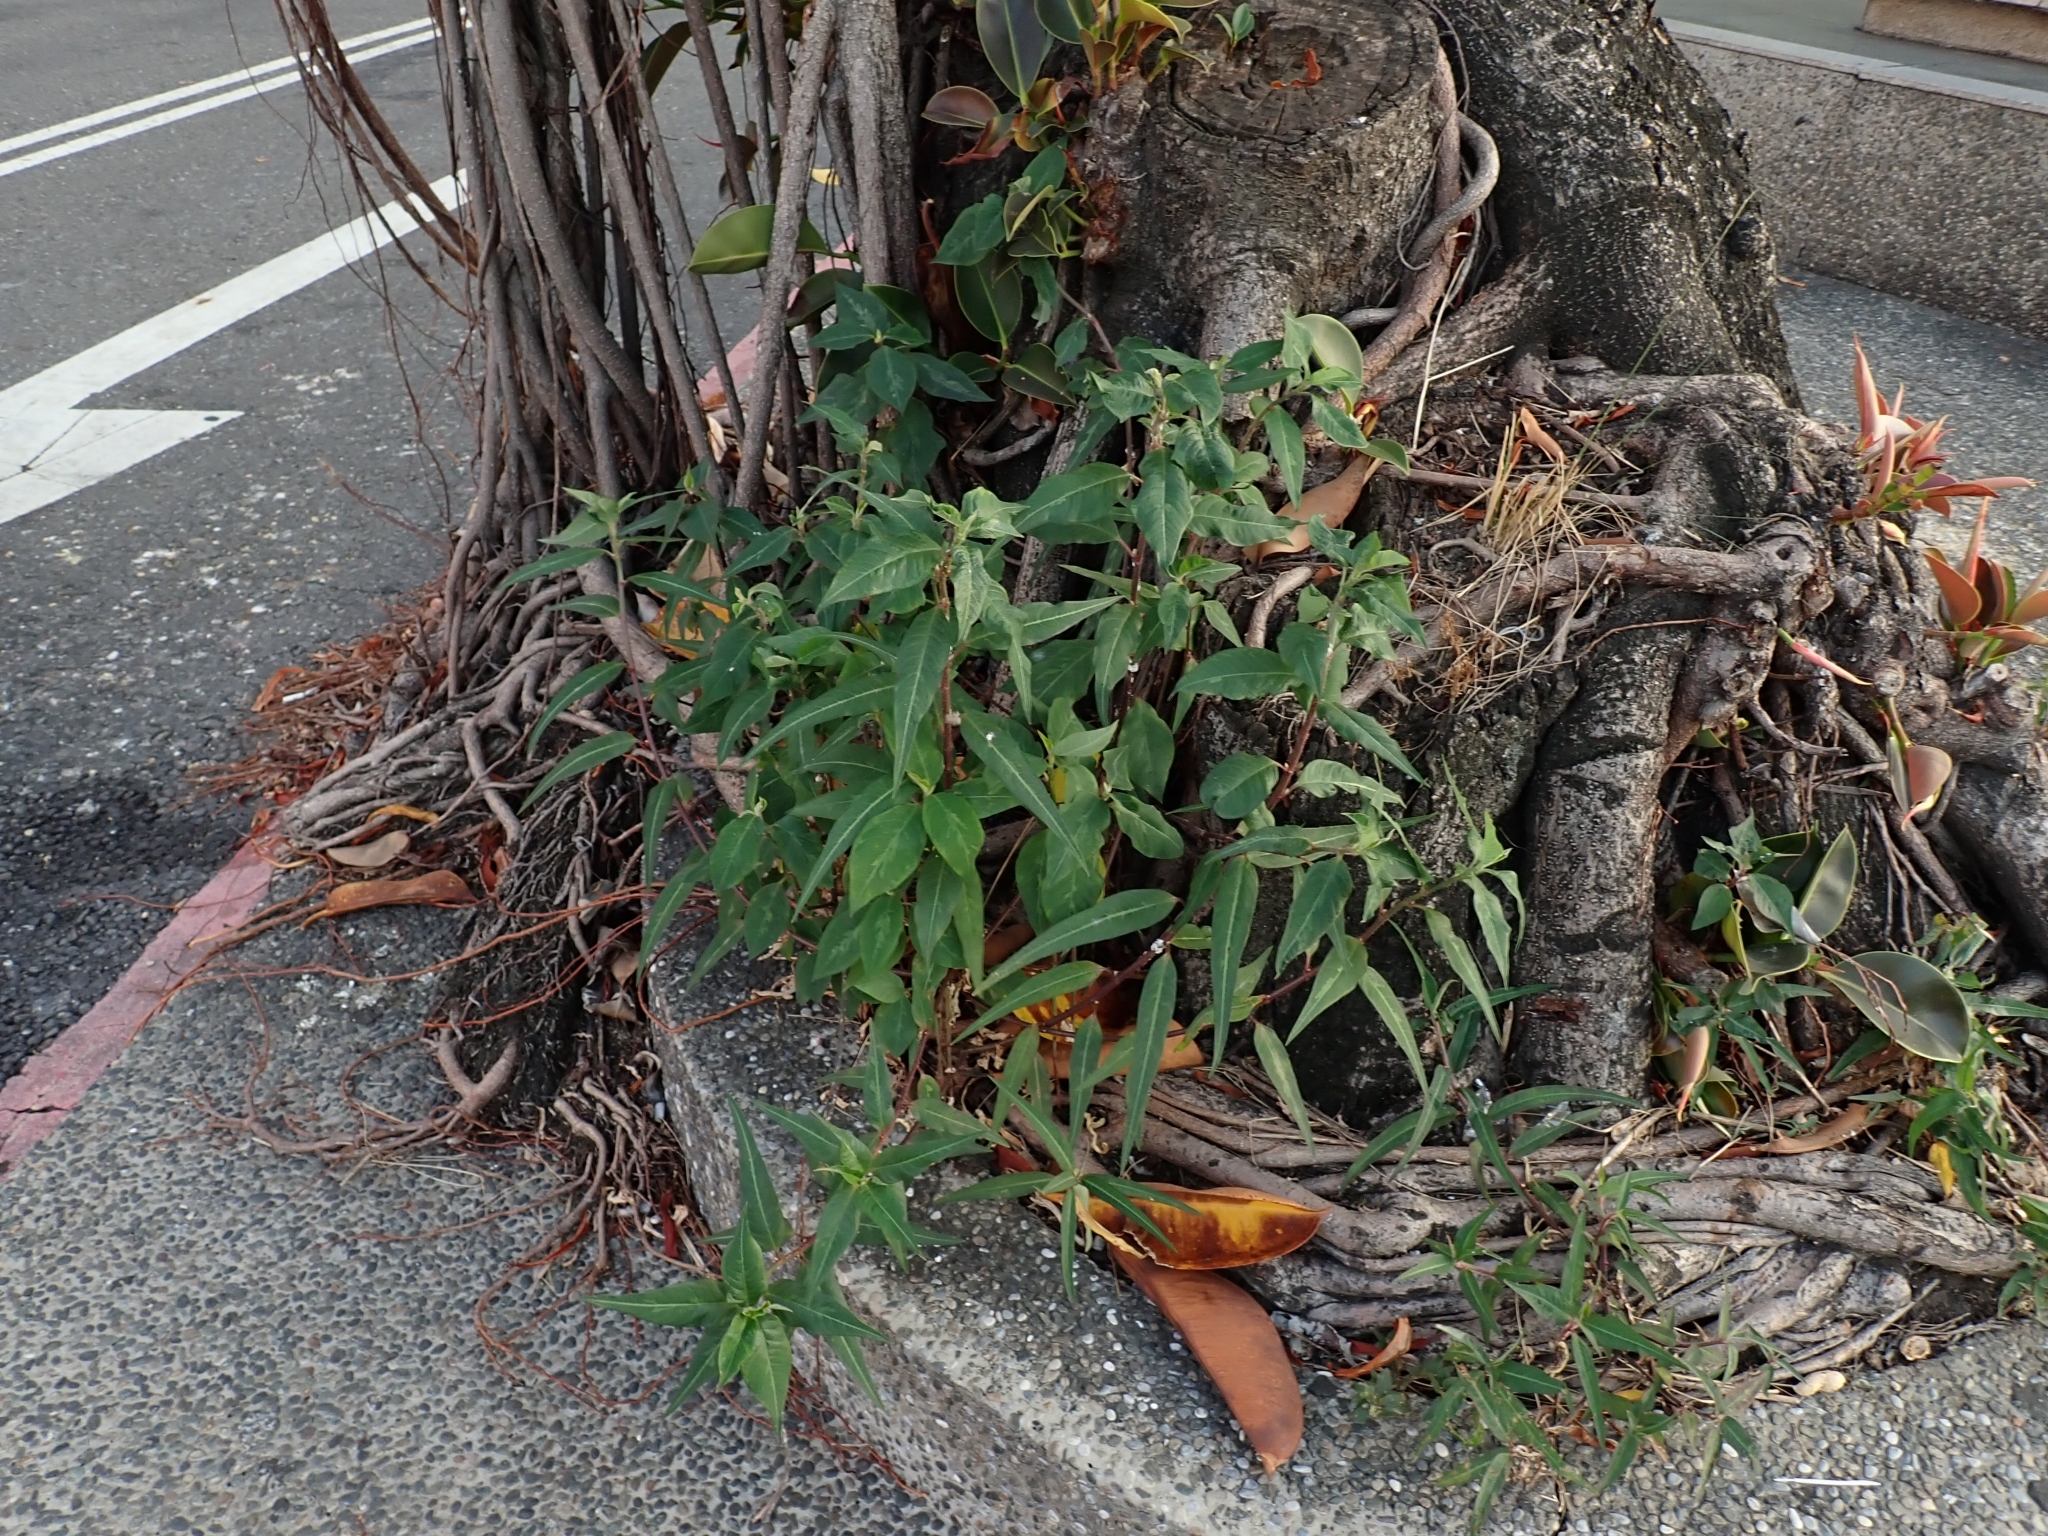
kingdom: Plantae
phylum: Tracheophyta
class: Magnoliopsida
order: Malpighiales
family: Euphorbiaceae
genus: Euphorbia
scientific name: Euphorbia heterophylla
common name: Mexican fireplant
